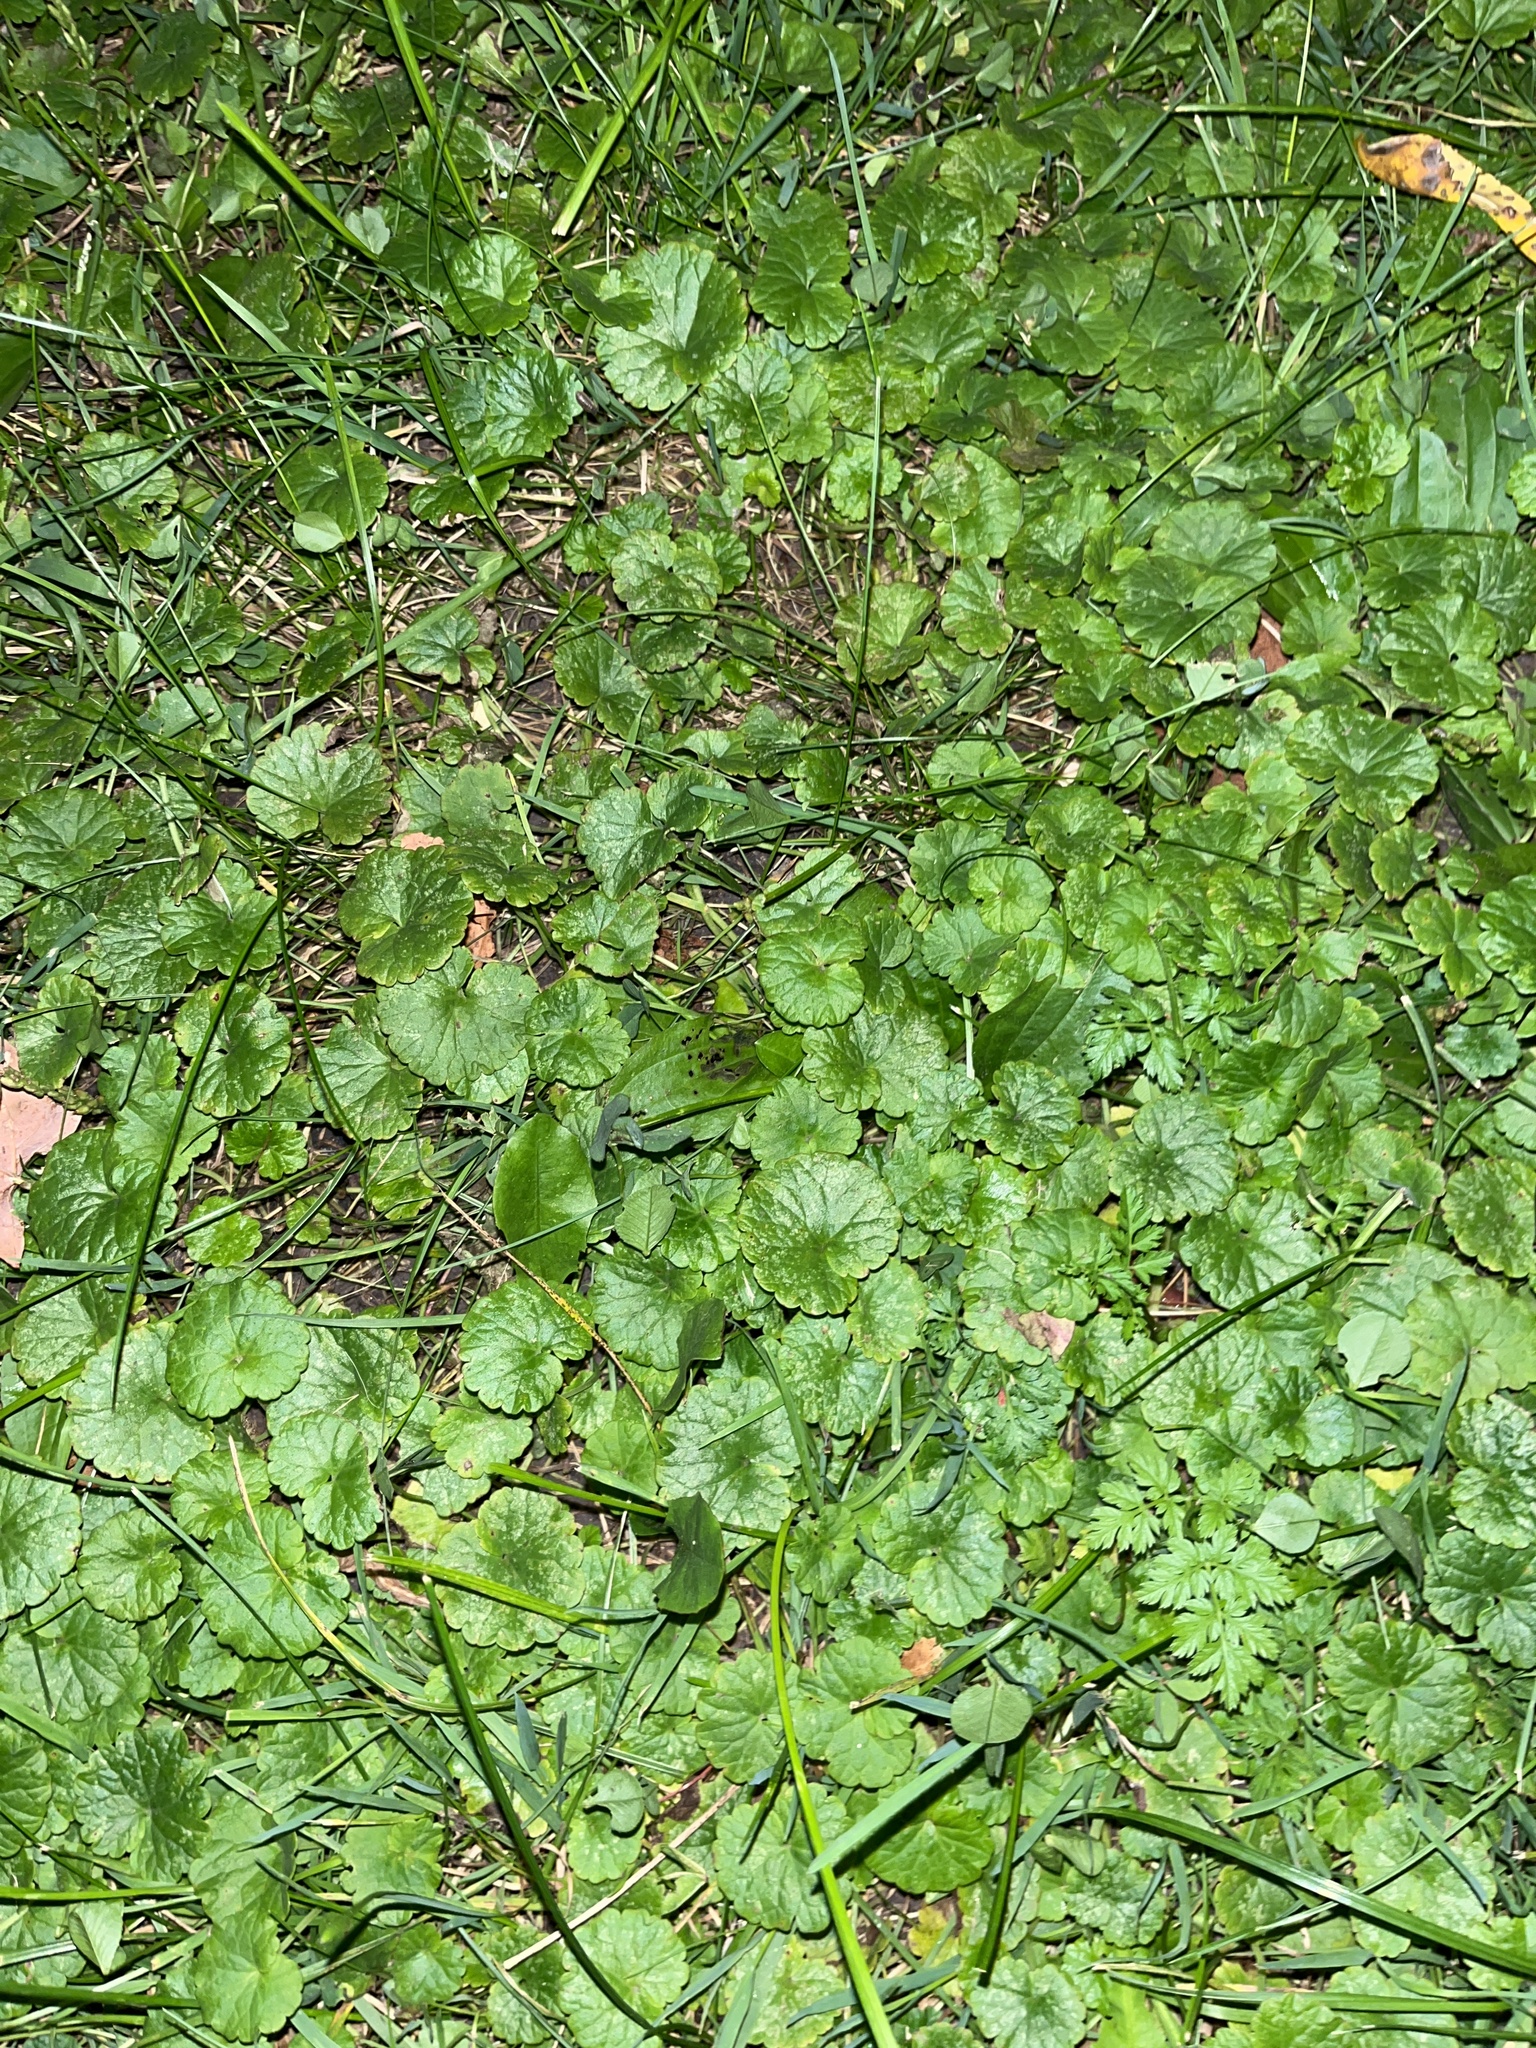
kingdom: Plantae
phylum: Tracheophyta
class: Magnoliopsida
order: Lamiales
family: Lamiaceae
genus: Glechoma
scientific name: Glechoma hederacea
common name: Ground ivy
